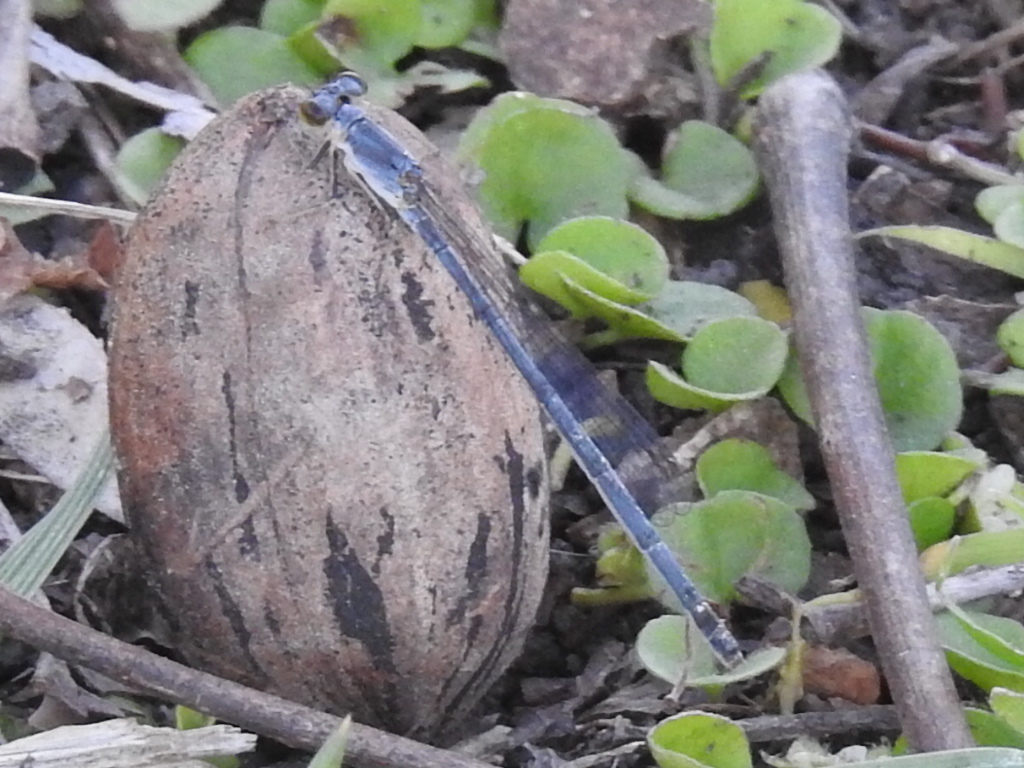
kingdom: Animalia
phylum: Arthropoda
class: Insecta
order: Odonata
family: Coenagrionidae
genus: Ischnura
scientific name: Ischnura posita
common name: Fragile forktail
